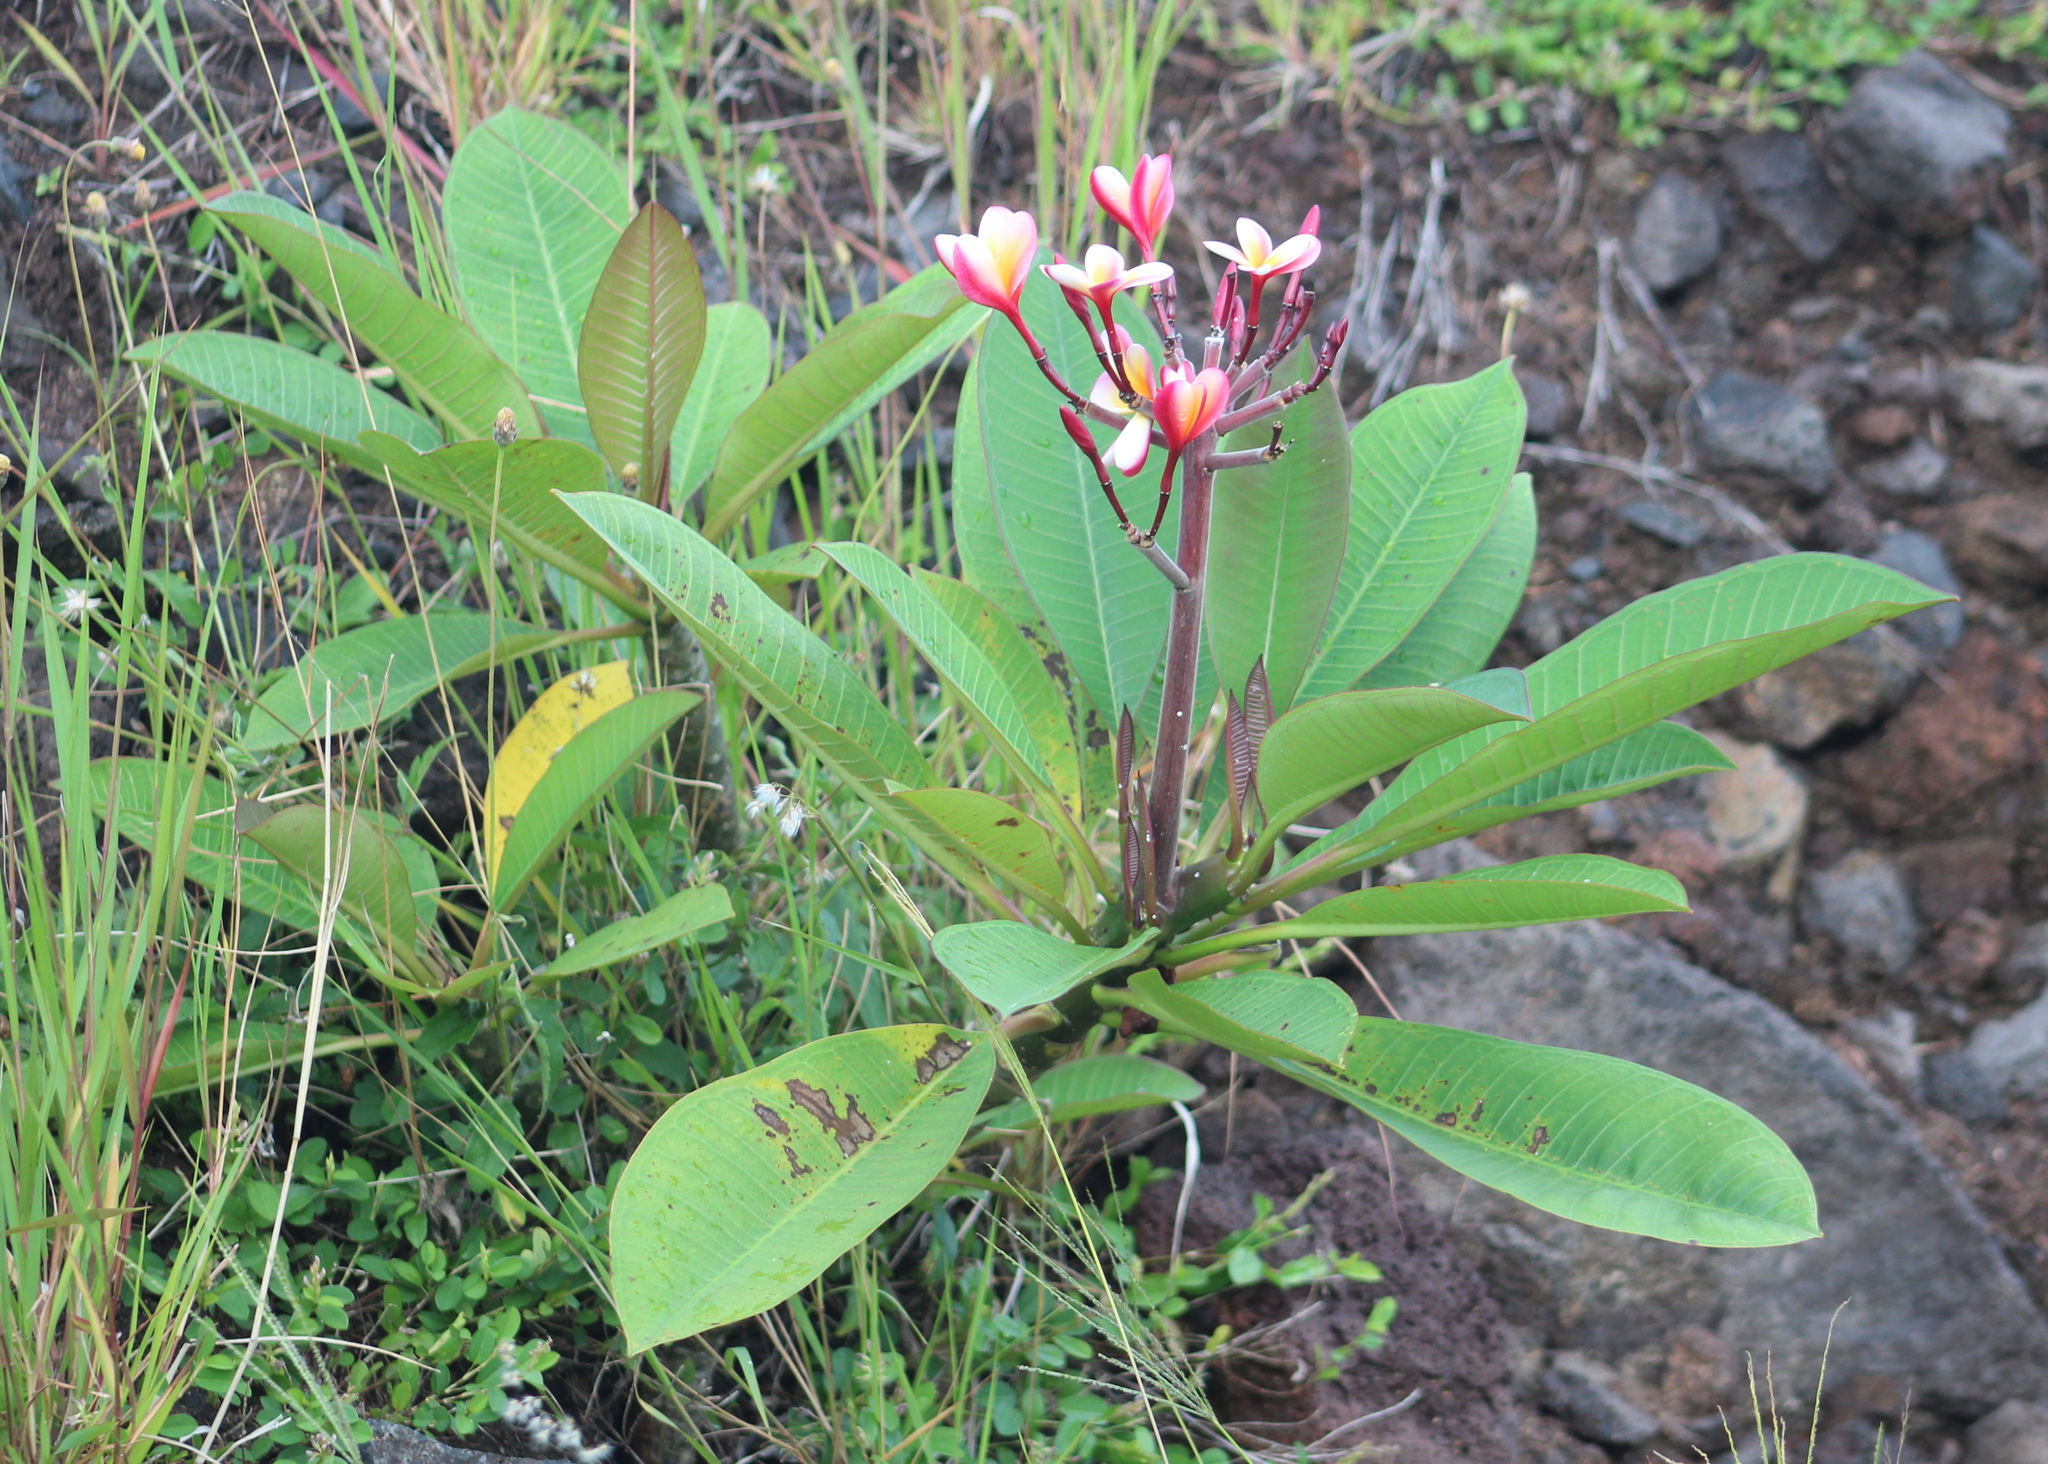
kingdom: Plantae
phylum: Tracheophyta
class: Magnoliopsida
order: Gentianales
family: Apocynaceae
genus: Plumeria
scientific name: Plumeria rubra
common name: Pagoda-tree
